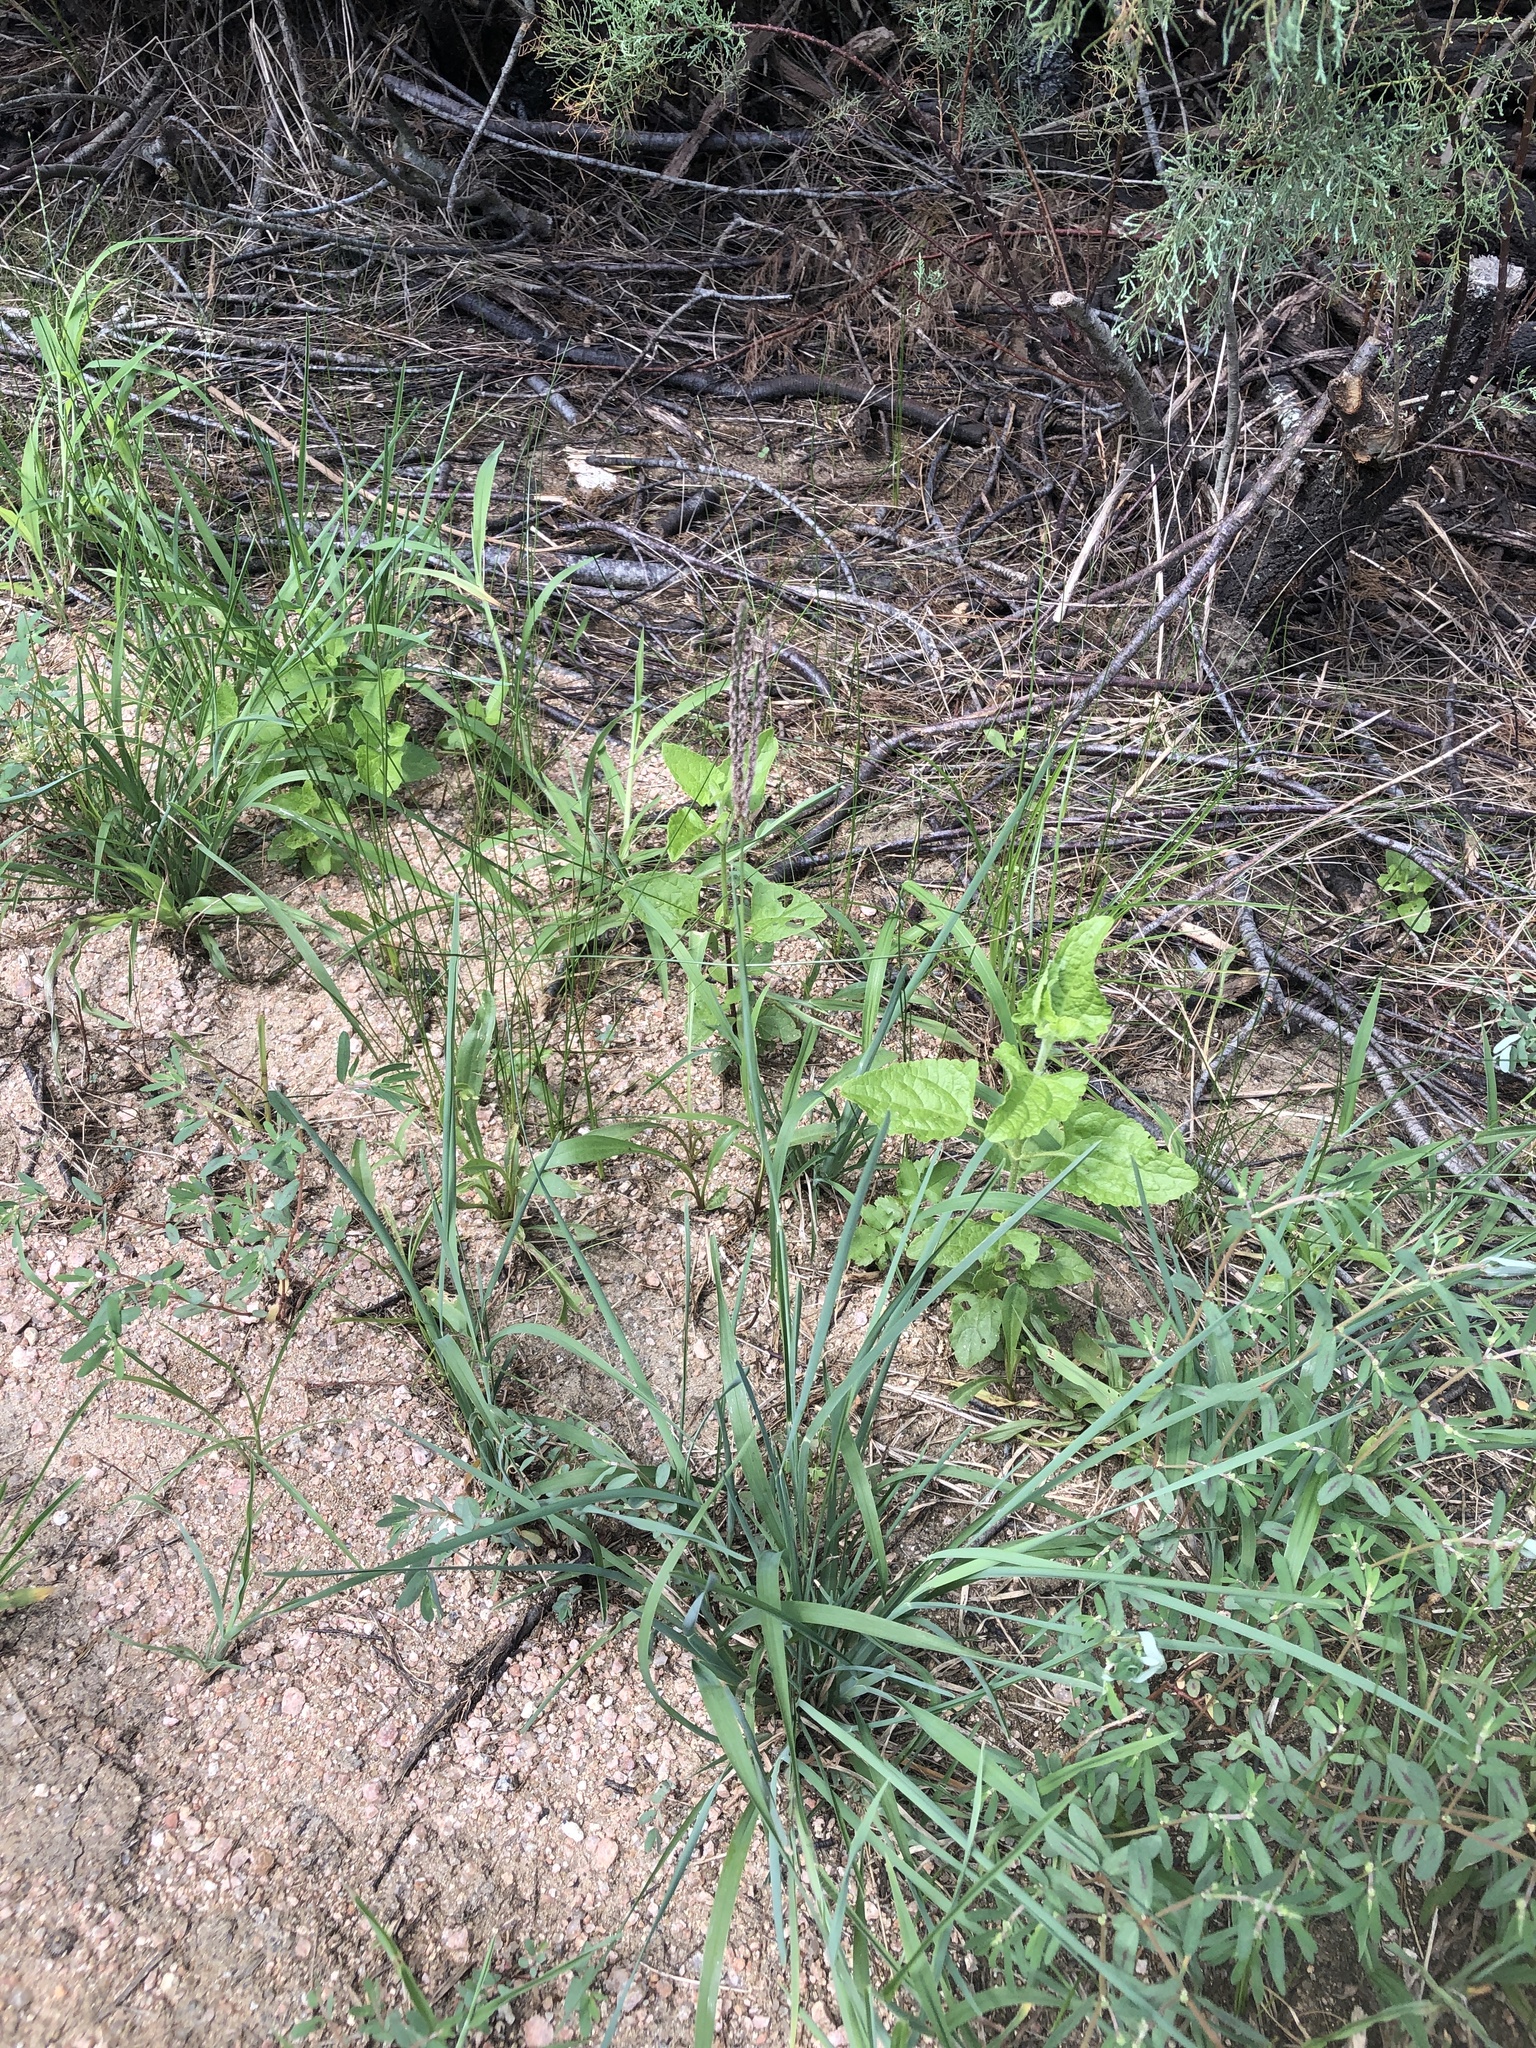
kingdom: Plantae
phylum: Tracheophyta
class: Liliopsida
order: Poales
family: Poaceae
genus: Eustachys
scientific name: Eustachys petraea
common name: Pinewoods fingergrass
